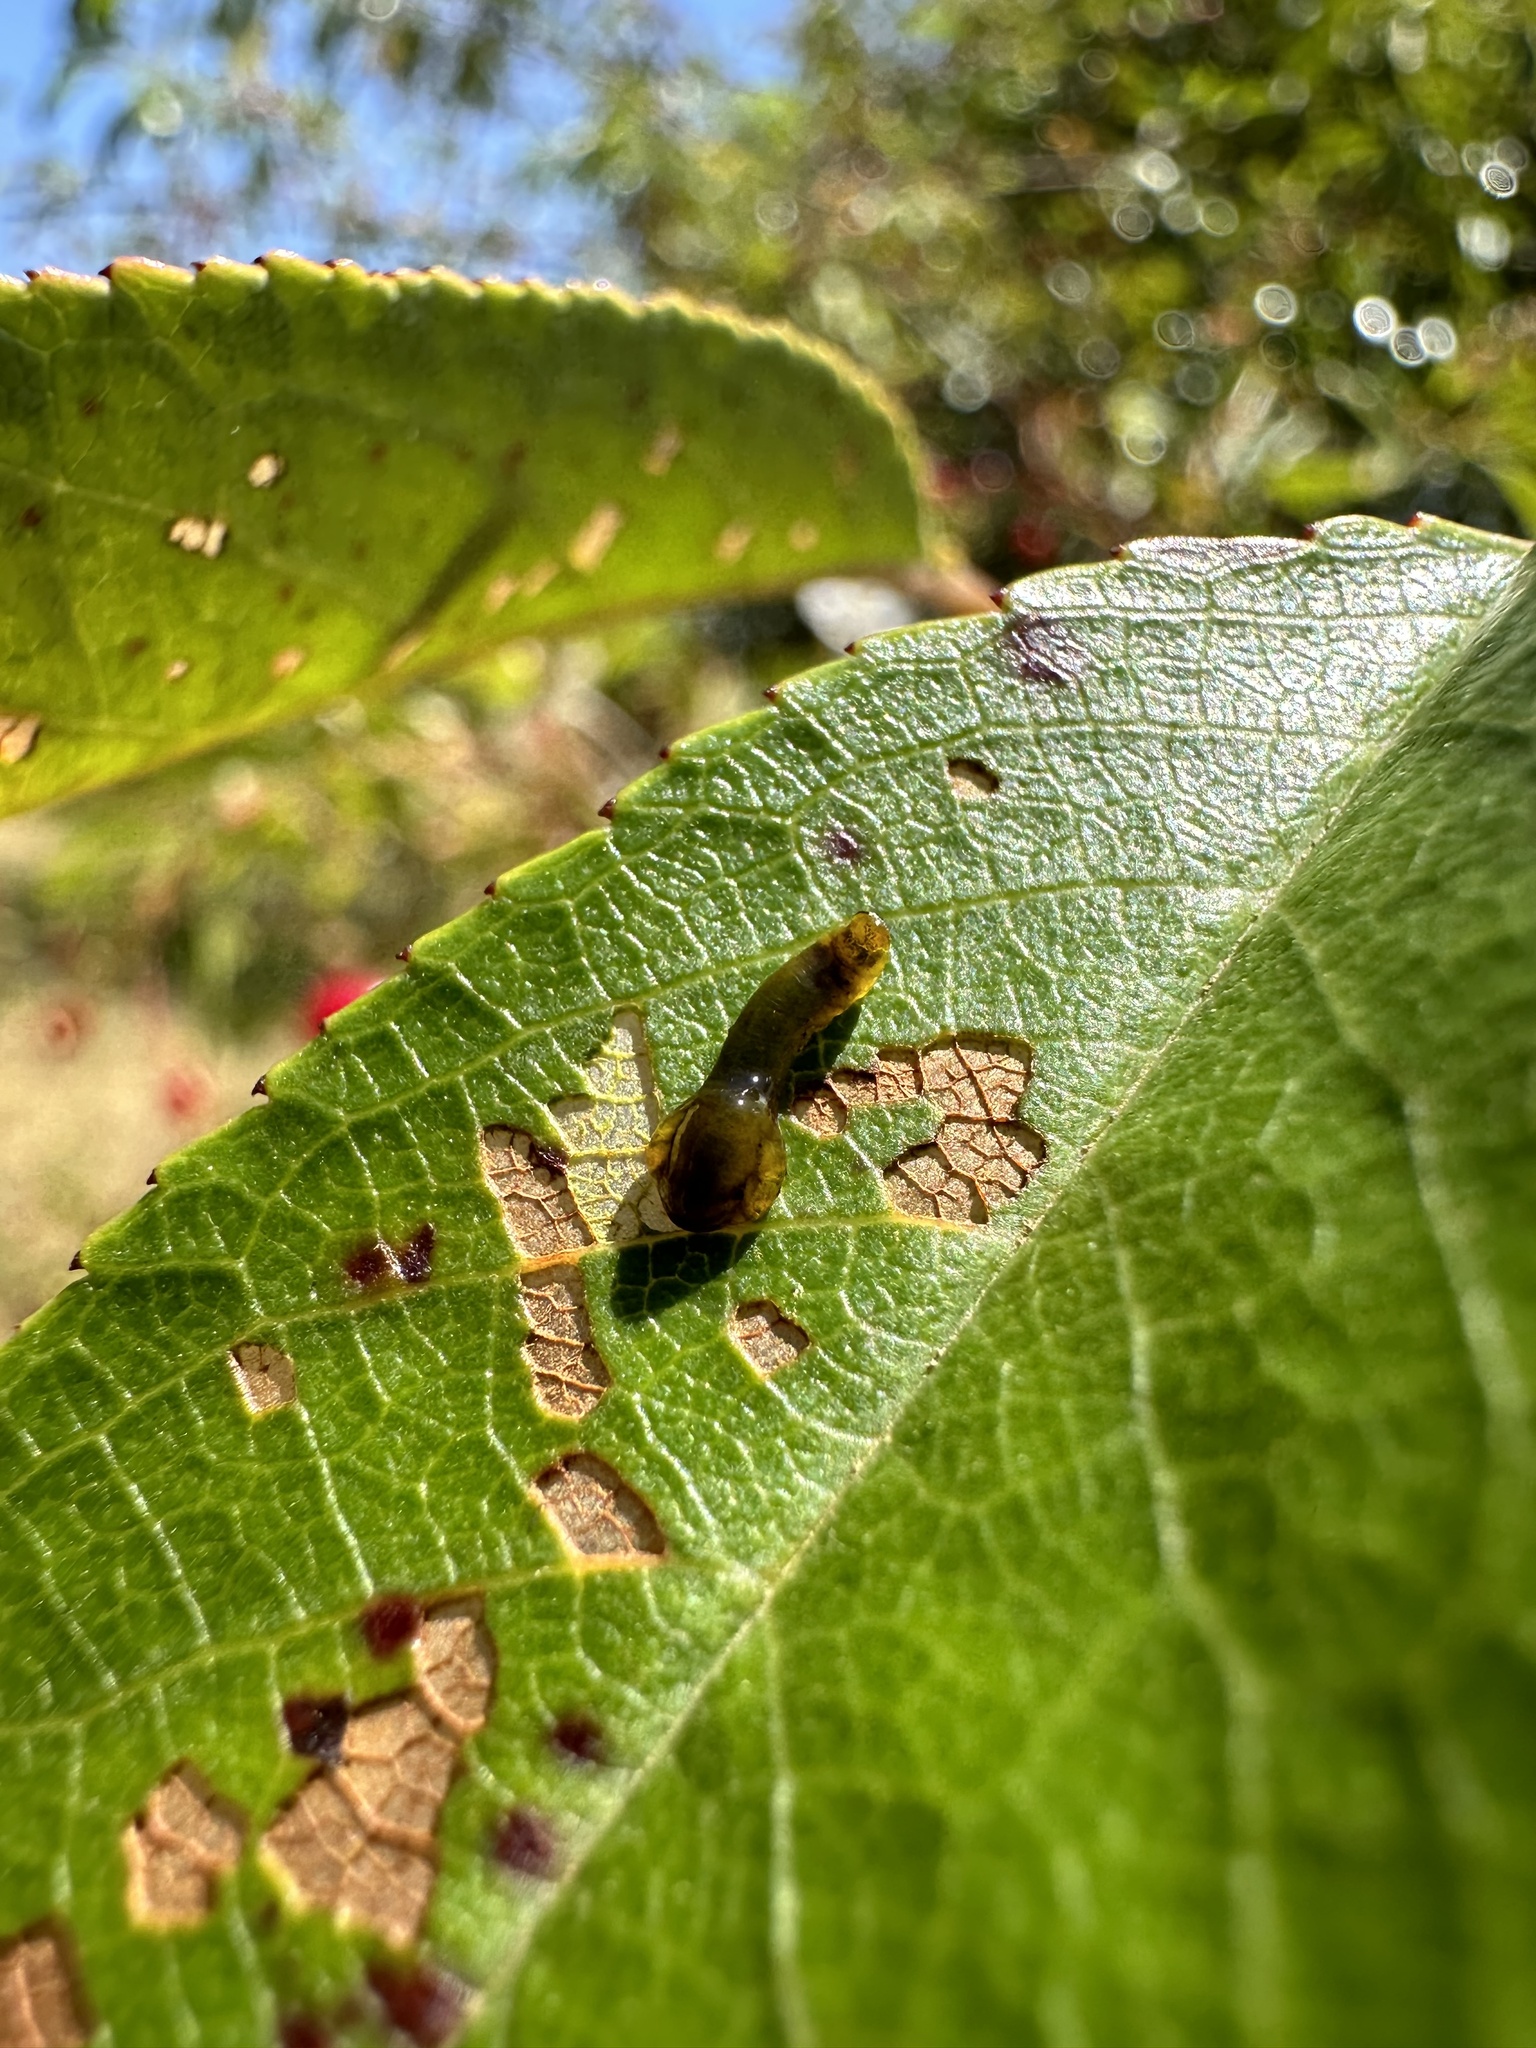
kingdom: Animalia
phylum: Arthropoda
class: Insecta
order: Hymenoptera
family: Tenthredinidae
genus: Caliroa
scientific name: Caliroa cerasi
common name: Pear sawfly
